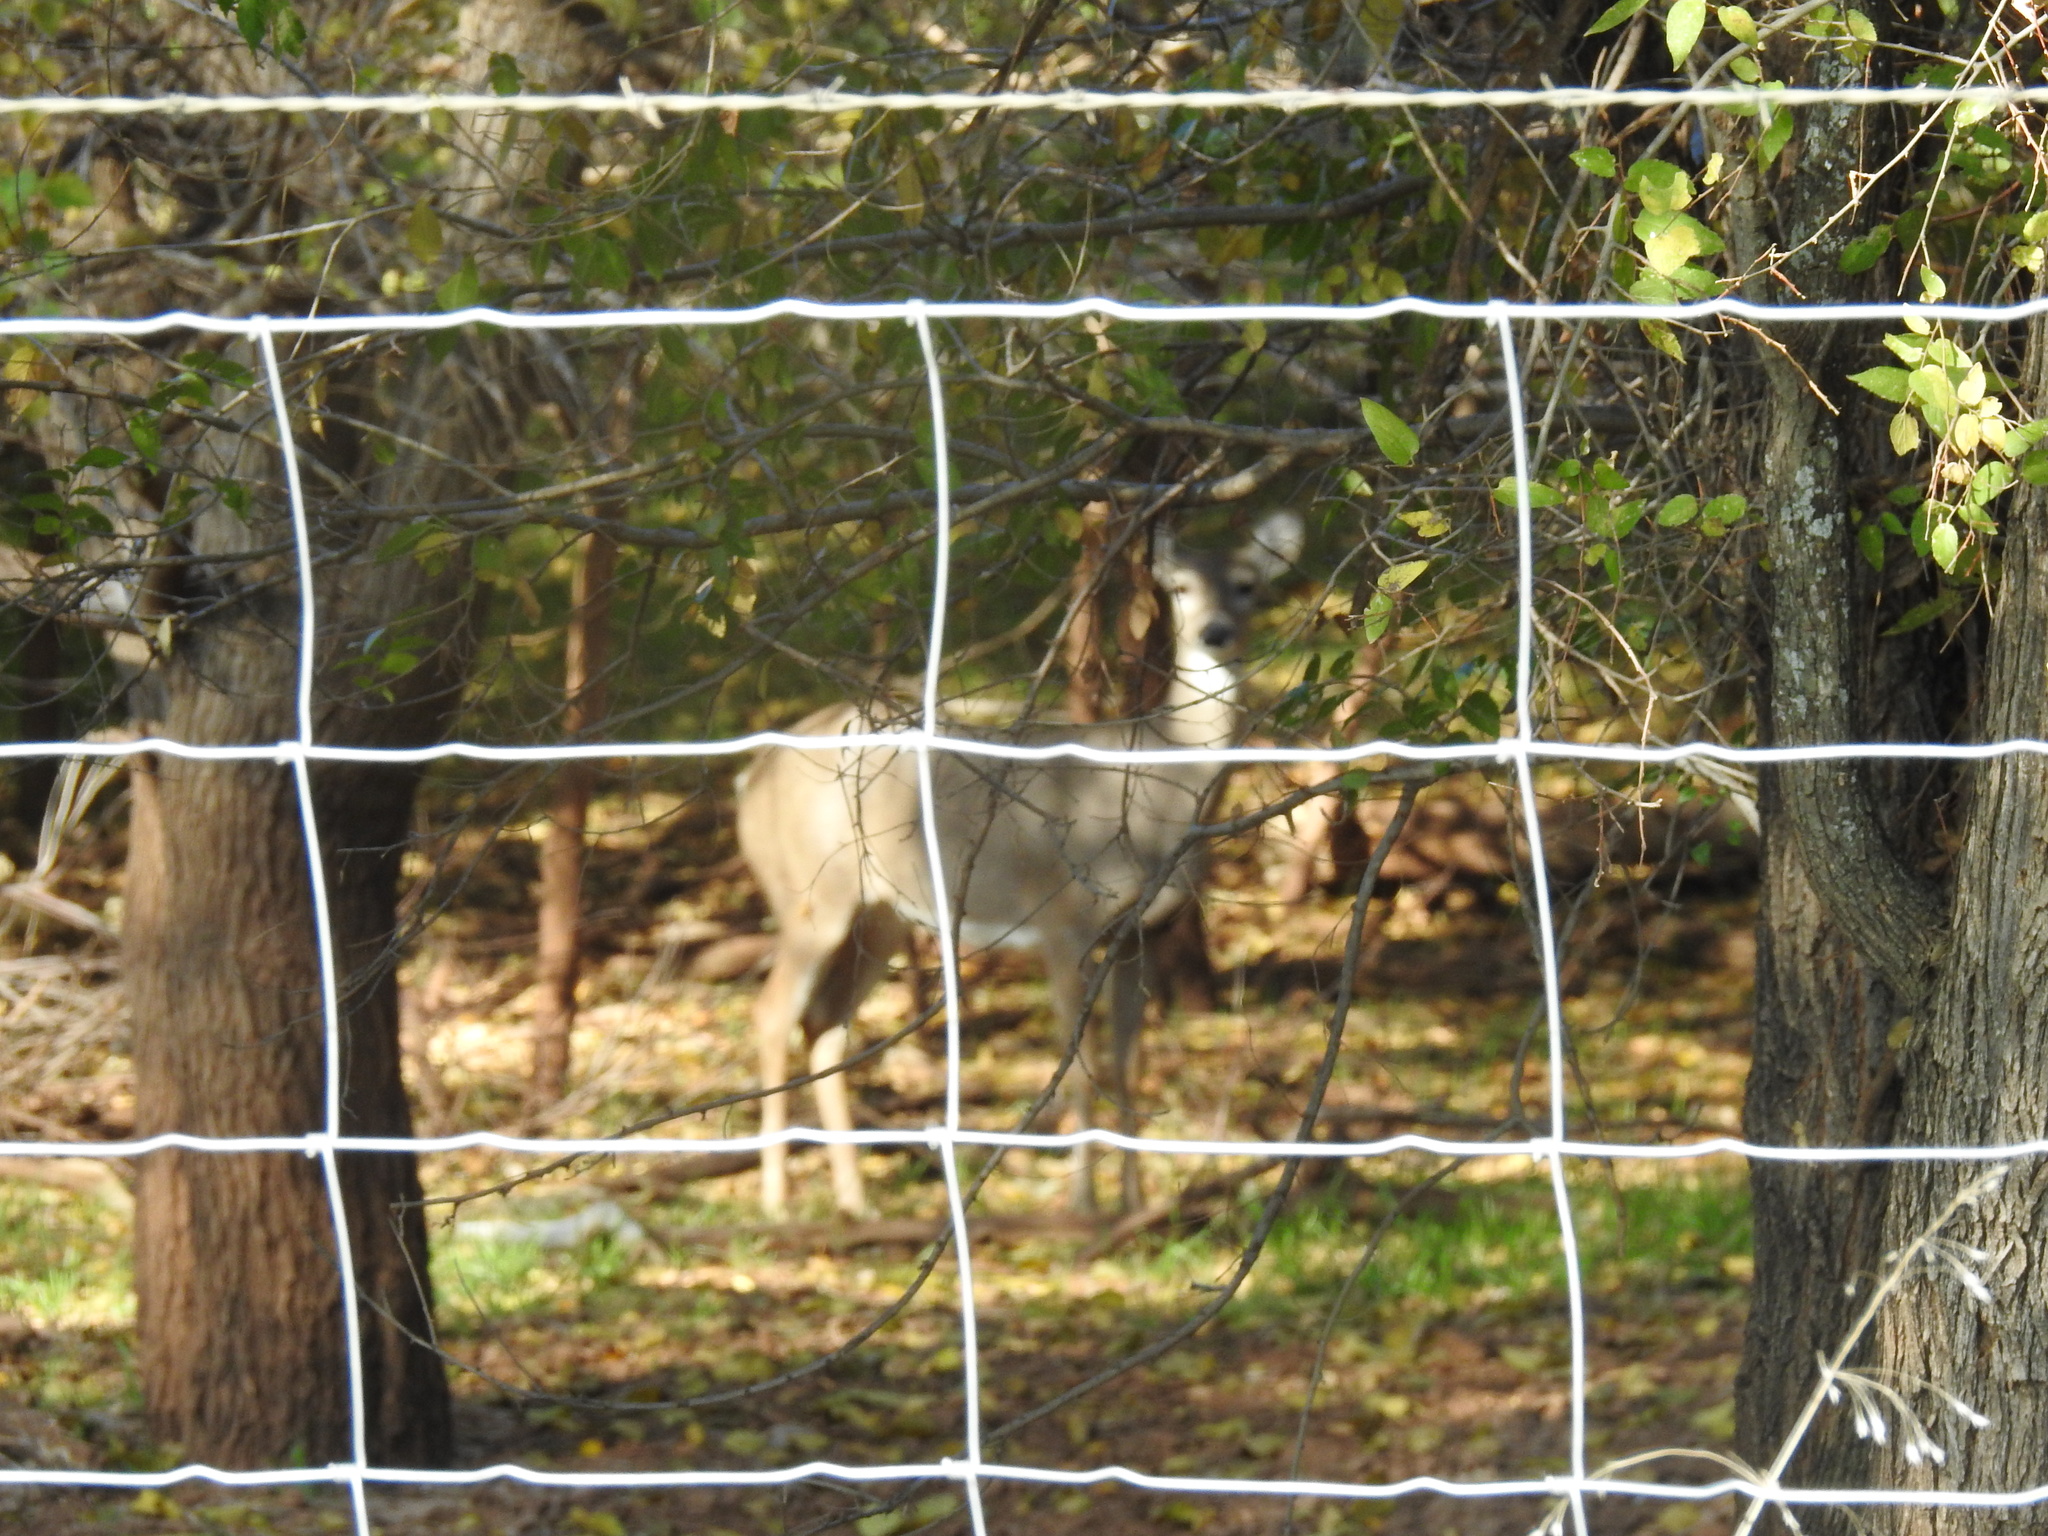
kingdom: Animalia
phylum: Chordata
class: Mammalia
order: Artiodactyla
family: Cervidae
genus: Odocoileus
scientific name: Odocoileus virginianus
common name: White-tailed deer
